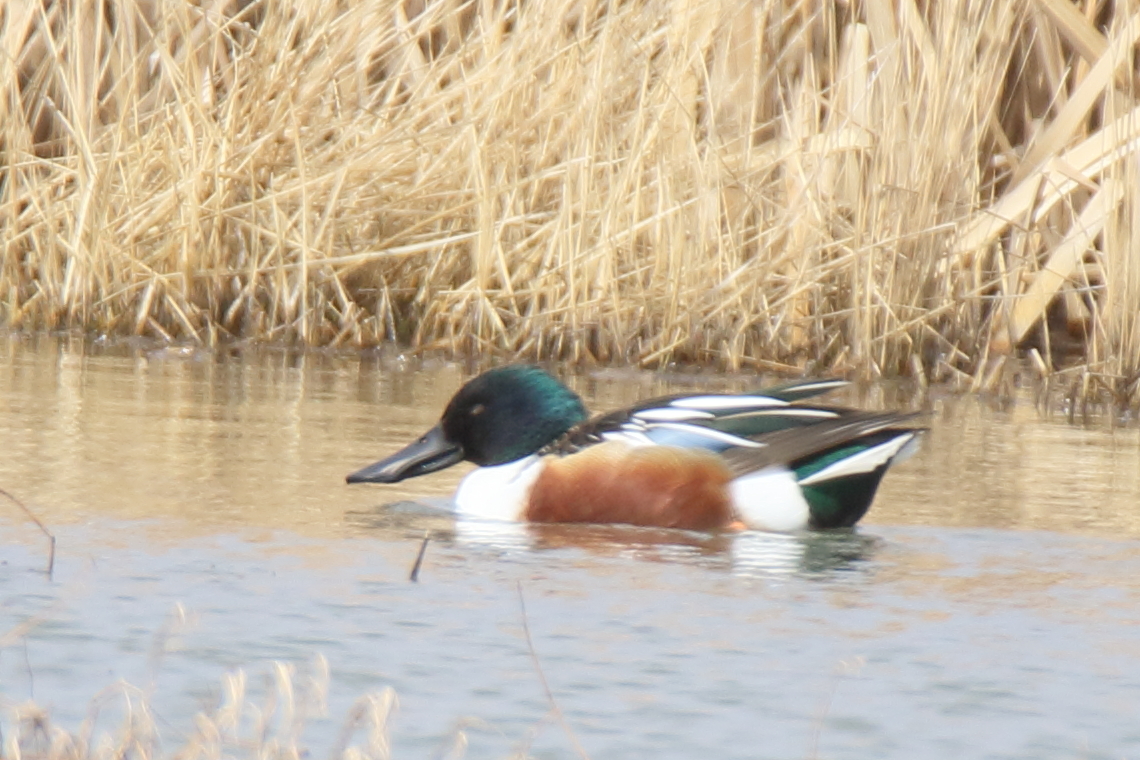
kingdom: Animalia
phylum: Chordata
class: Aves
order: Anseriformes
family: Anatidae
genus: Spatula
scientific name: Spatula clypeata
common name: Northern shoveler
